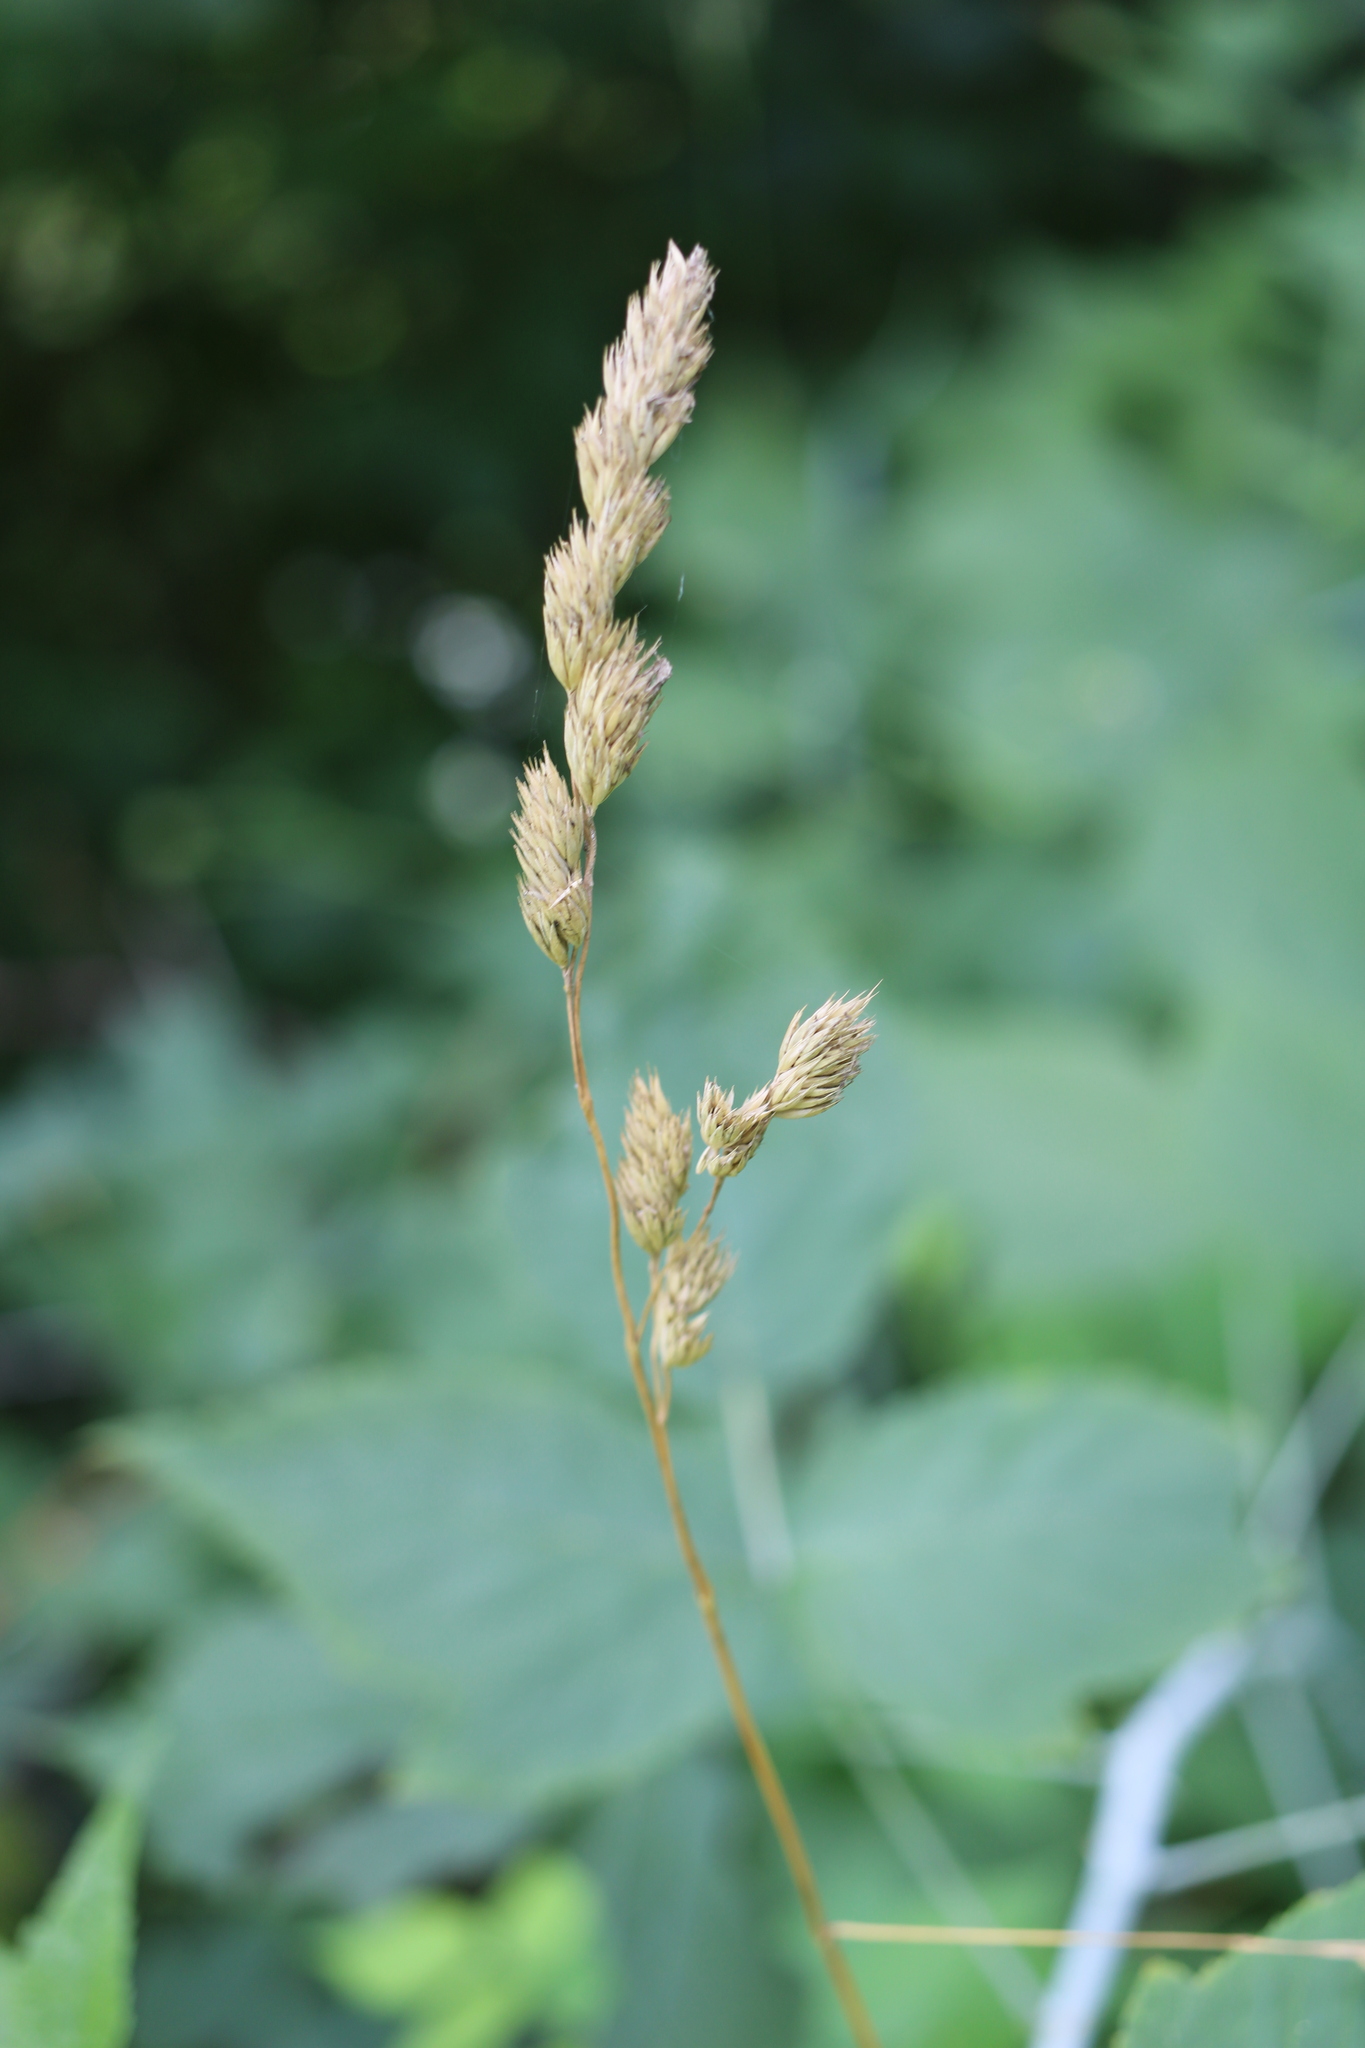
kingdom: Plantae
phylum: Tracheophyta
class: Liliopsida
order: Poales
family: Poaceae
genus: Dactylis
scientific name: Dactylis glomerata
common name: Orchardgrass
